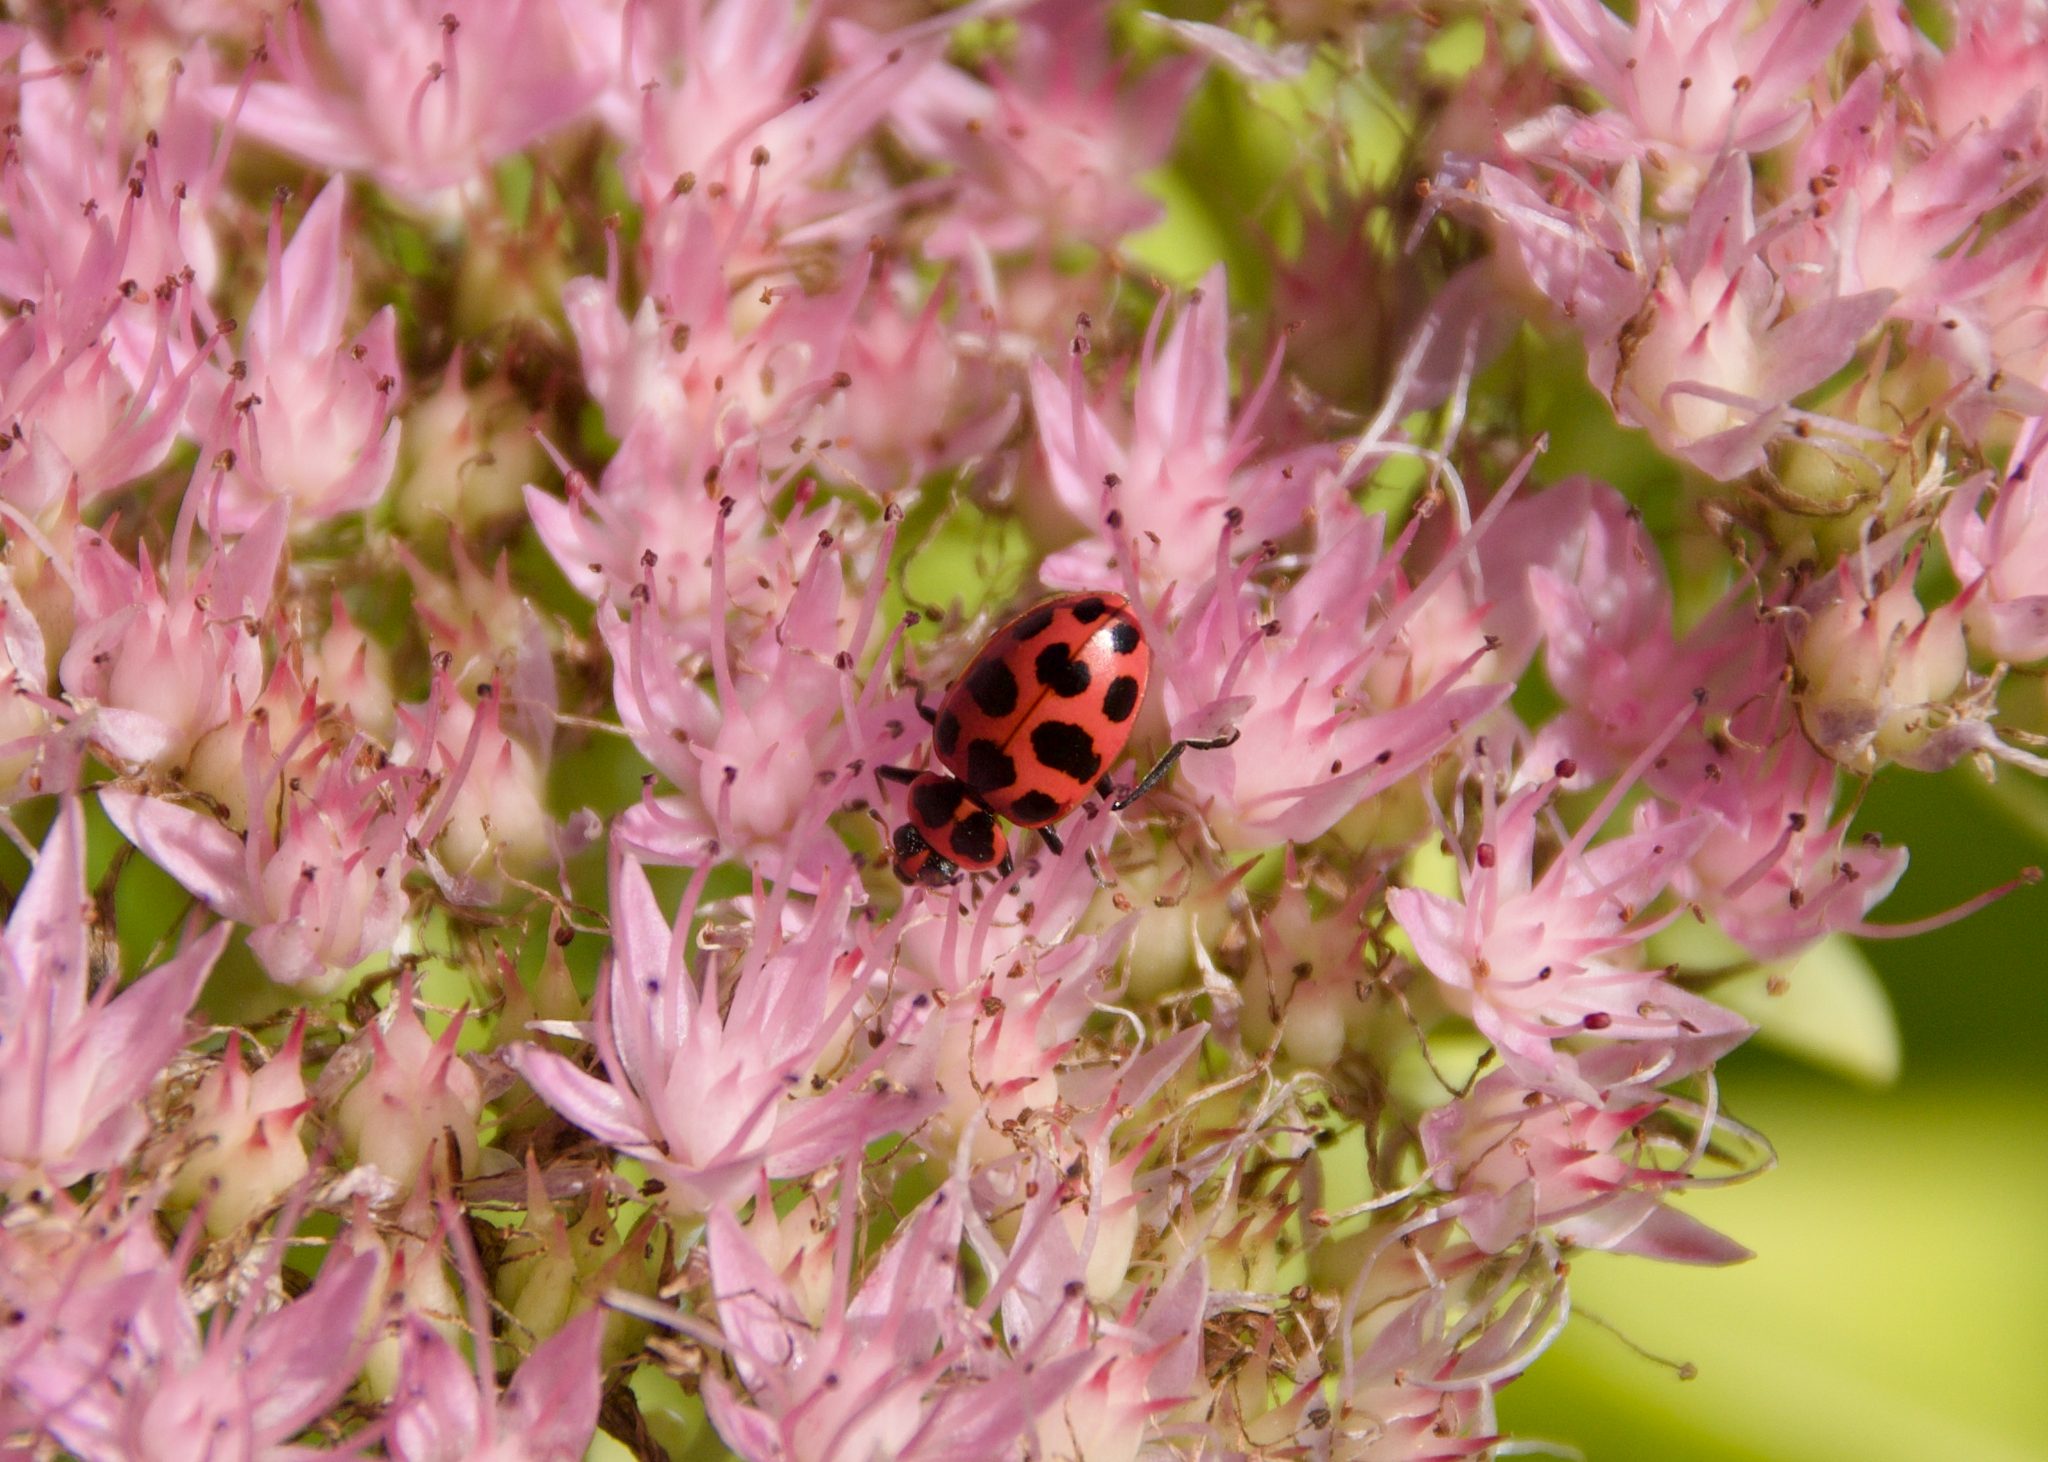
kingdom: Animalia
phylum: Arthropoda
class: Insecta
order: Coleoptera
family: Coccinellidae
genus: Coleomegilla
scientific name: Coleomegilla maculata
